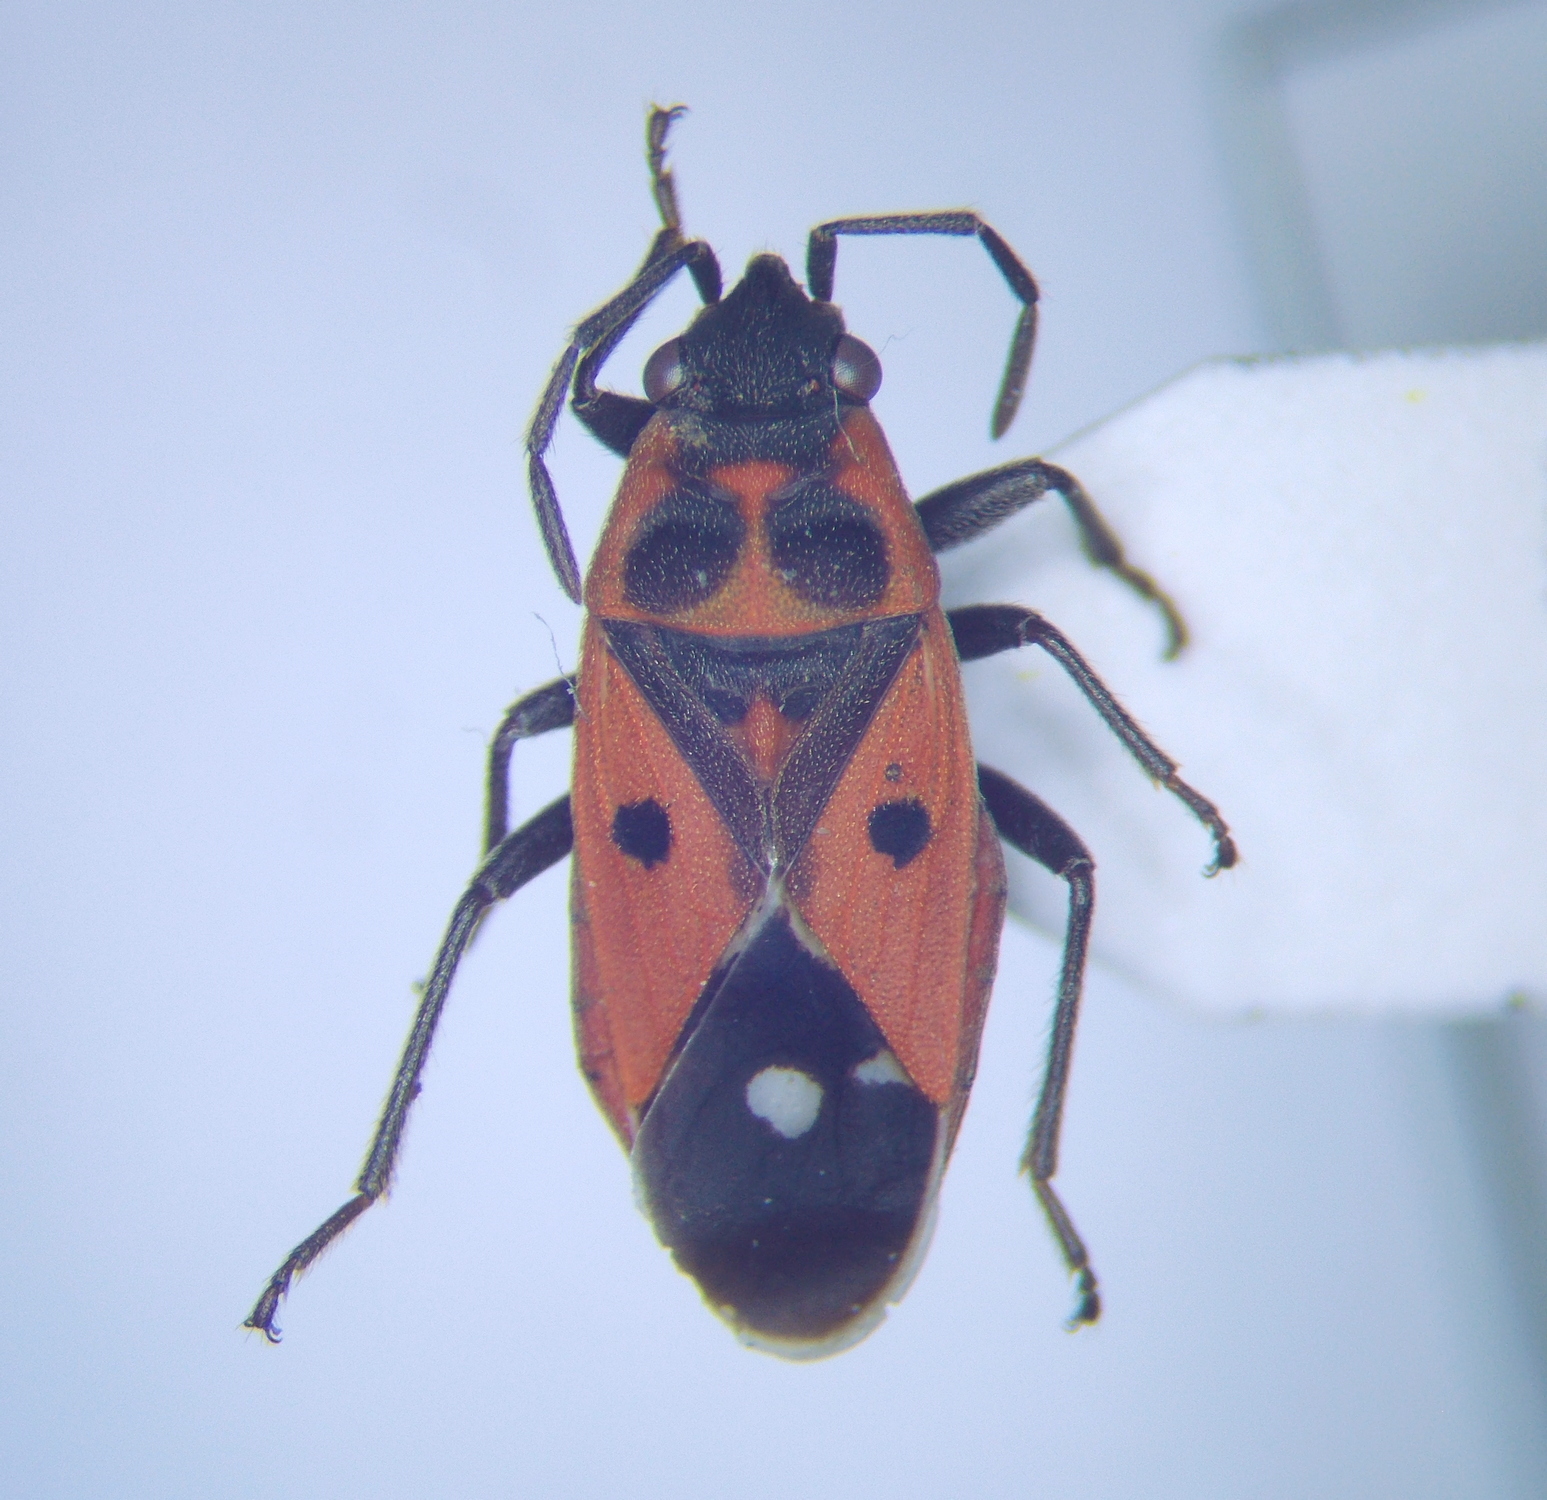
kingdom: Animalia
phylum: Arthropoda
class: Insecta
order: Hemiptera
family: Lygaeidae
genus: Melanocoryphus
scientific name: Melanocoryphus tristrami
